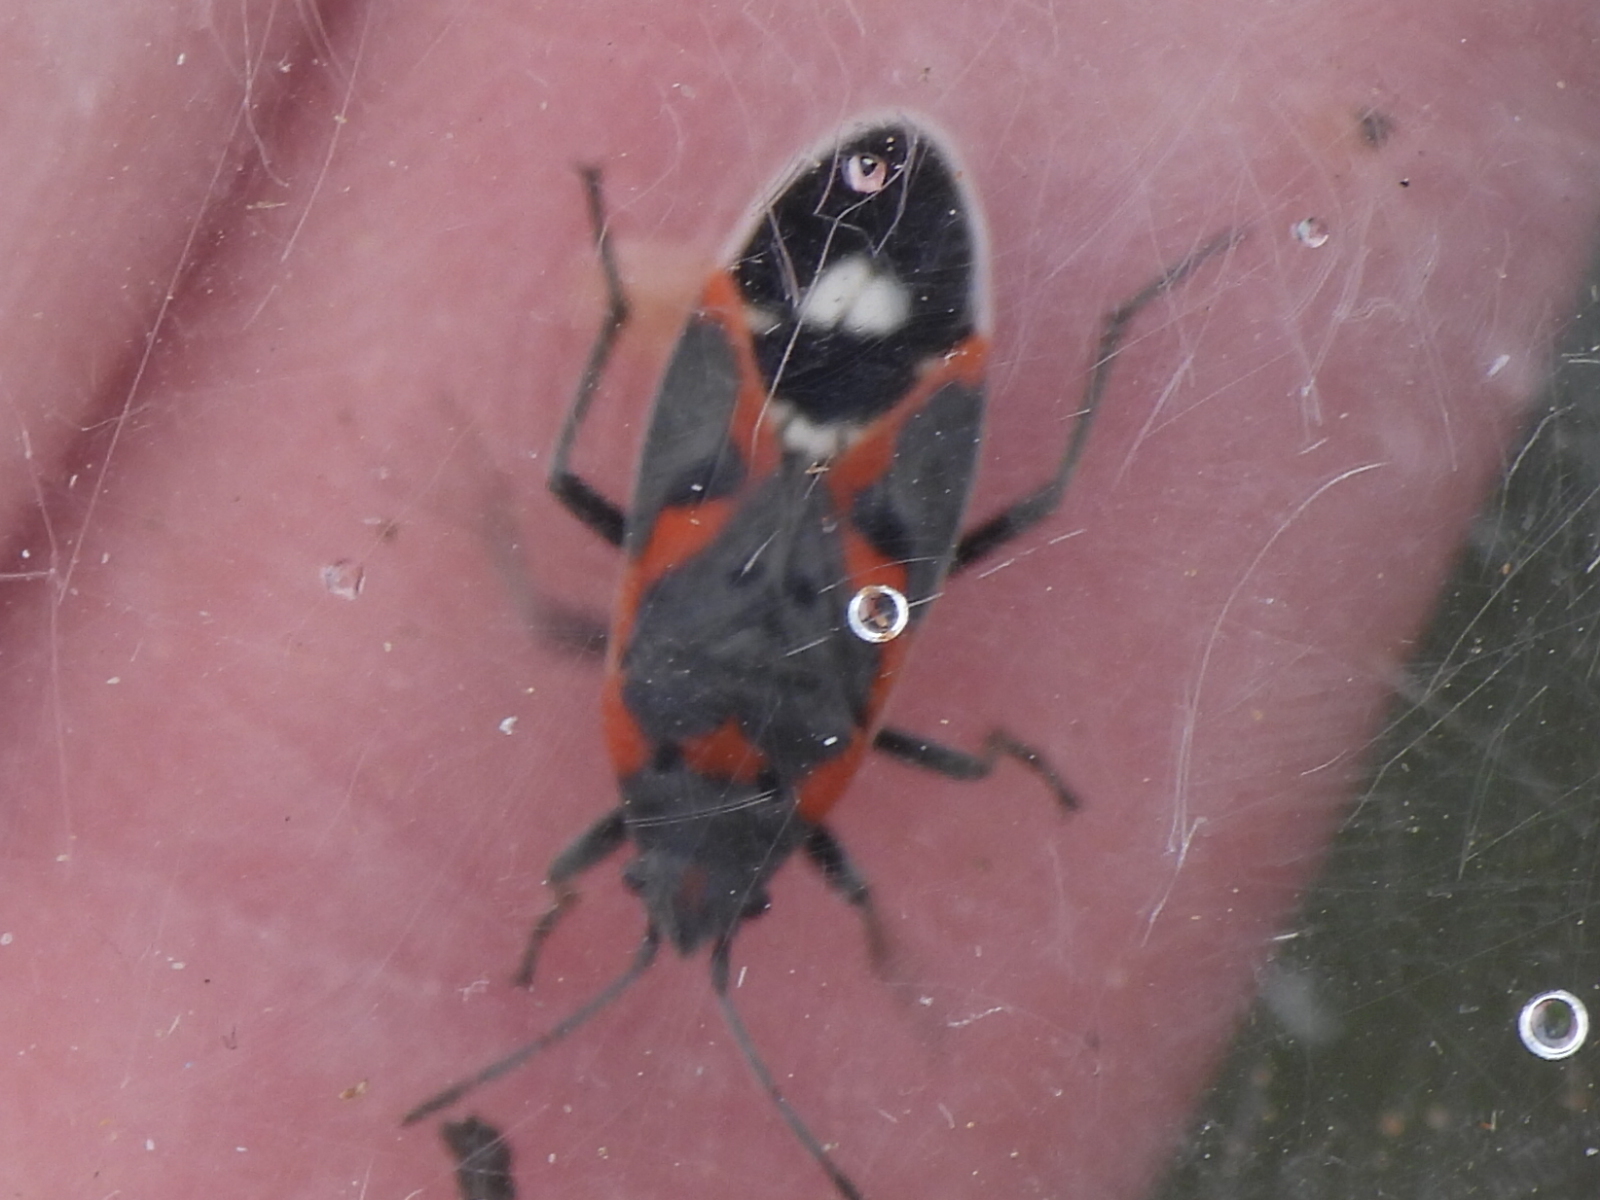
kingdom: Animalia
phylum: Arthropoda
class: Insecta
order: Hemiptera
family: Lygaeidae
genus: Lygaeus
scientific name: Lygaeus kalmii
